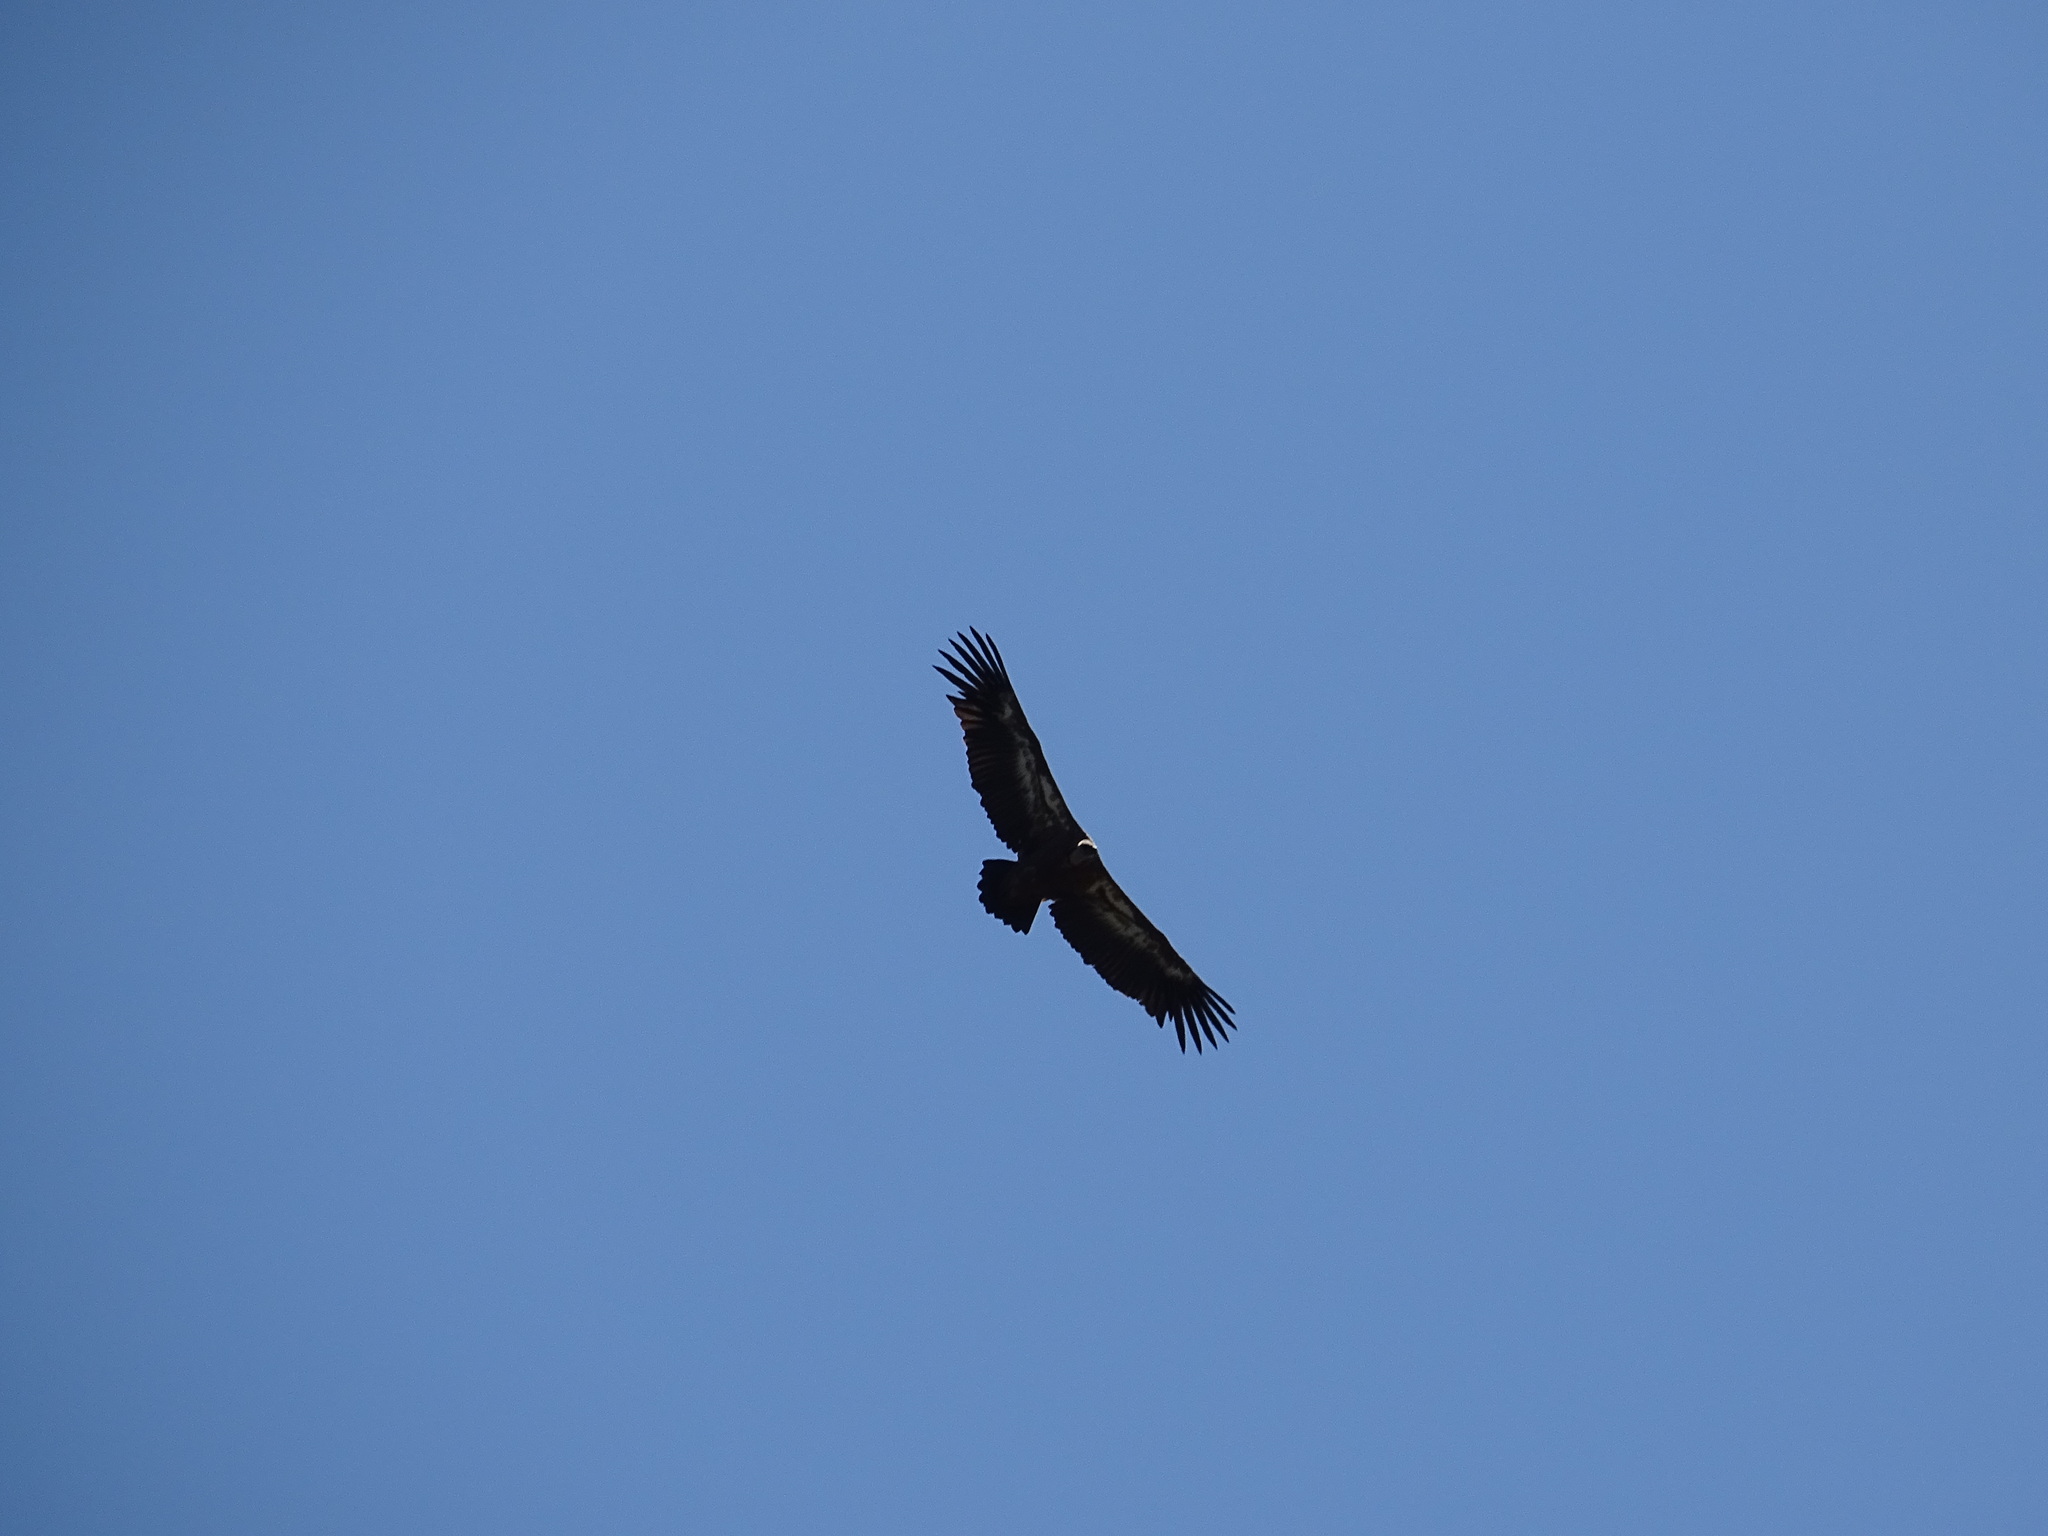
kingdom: Animalia
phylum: Chordata
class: Aves
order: Accipitriformes
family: Accipitridae
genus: Gyps
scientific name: Gyps fulvus
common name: Griffon vulture
